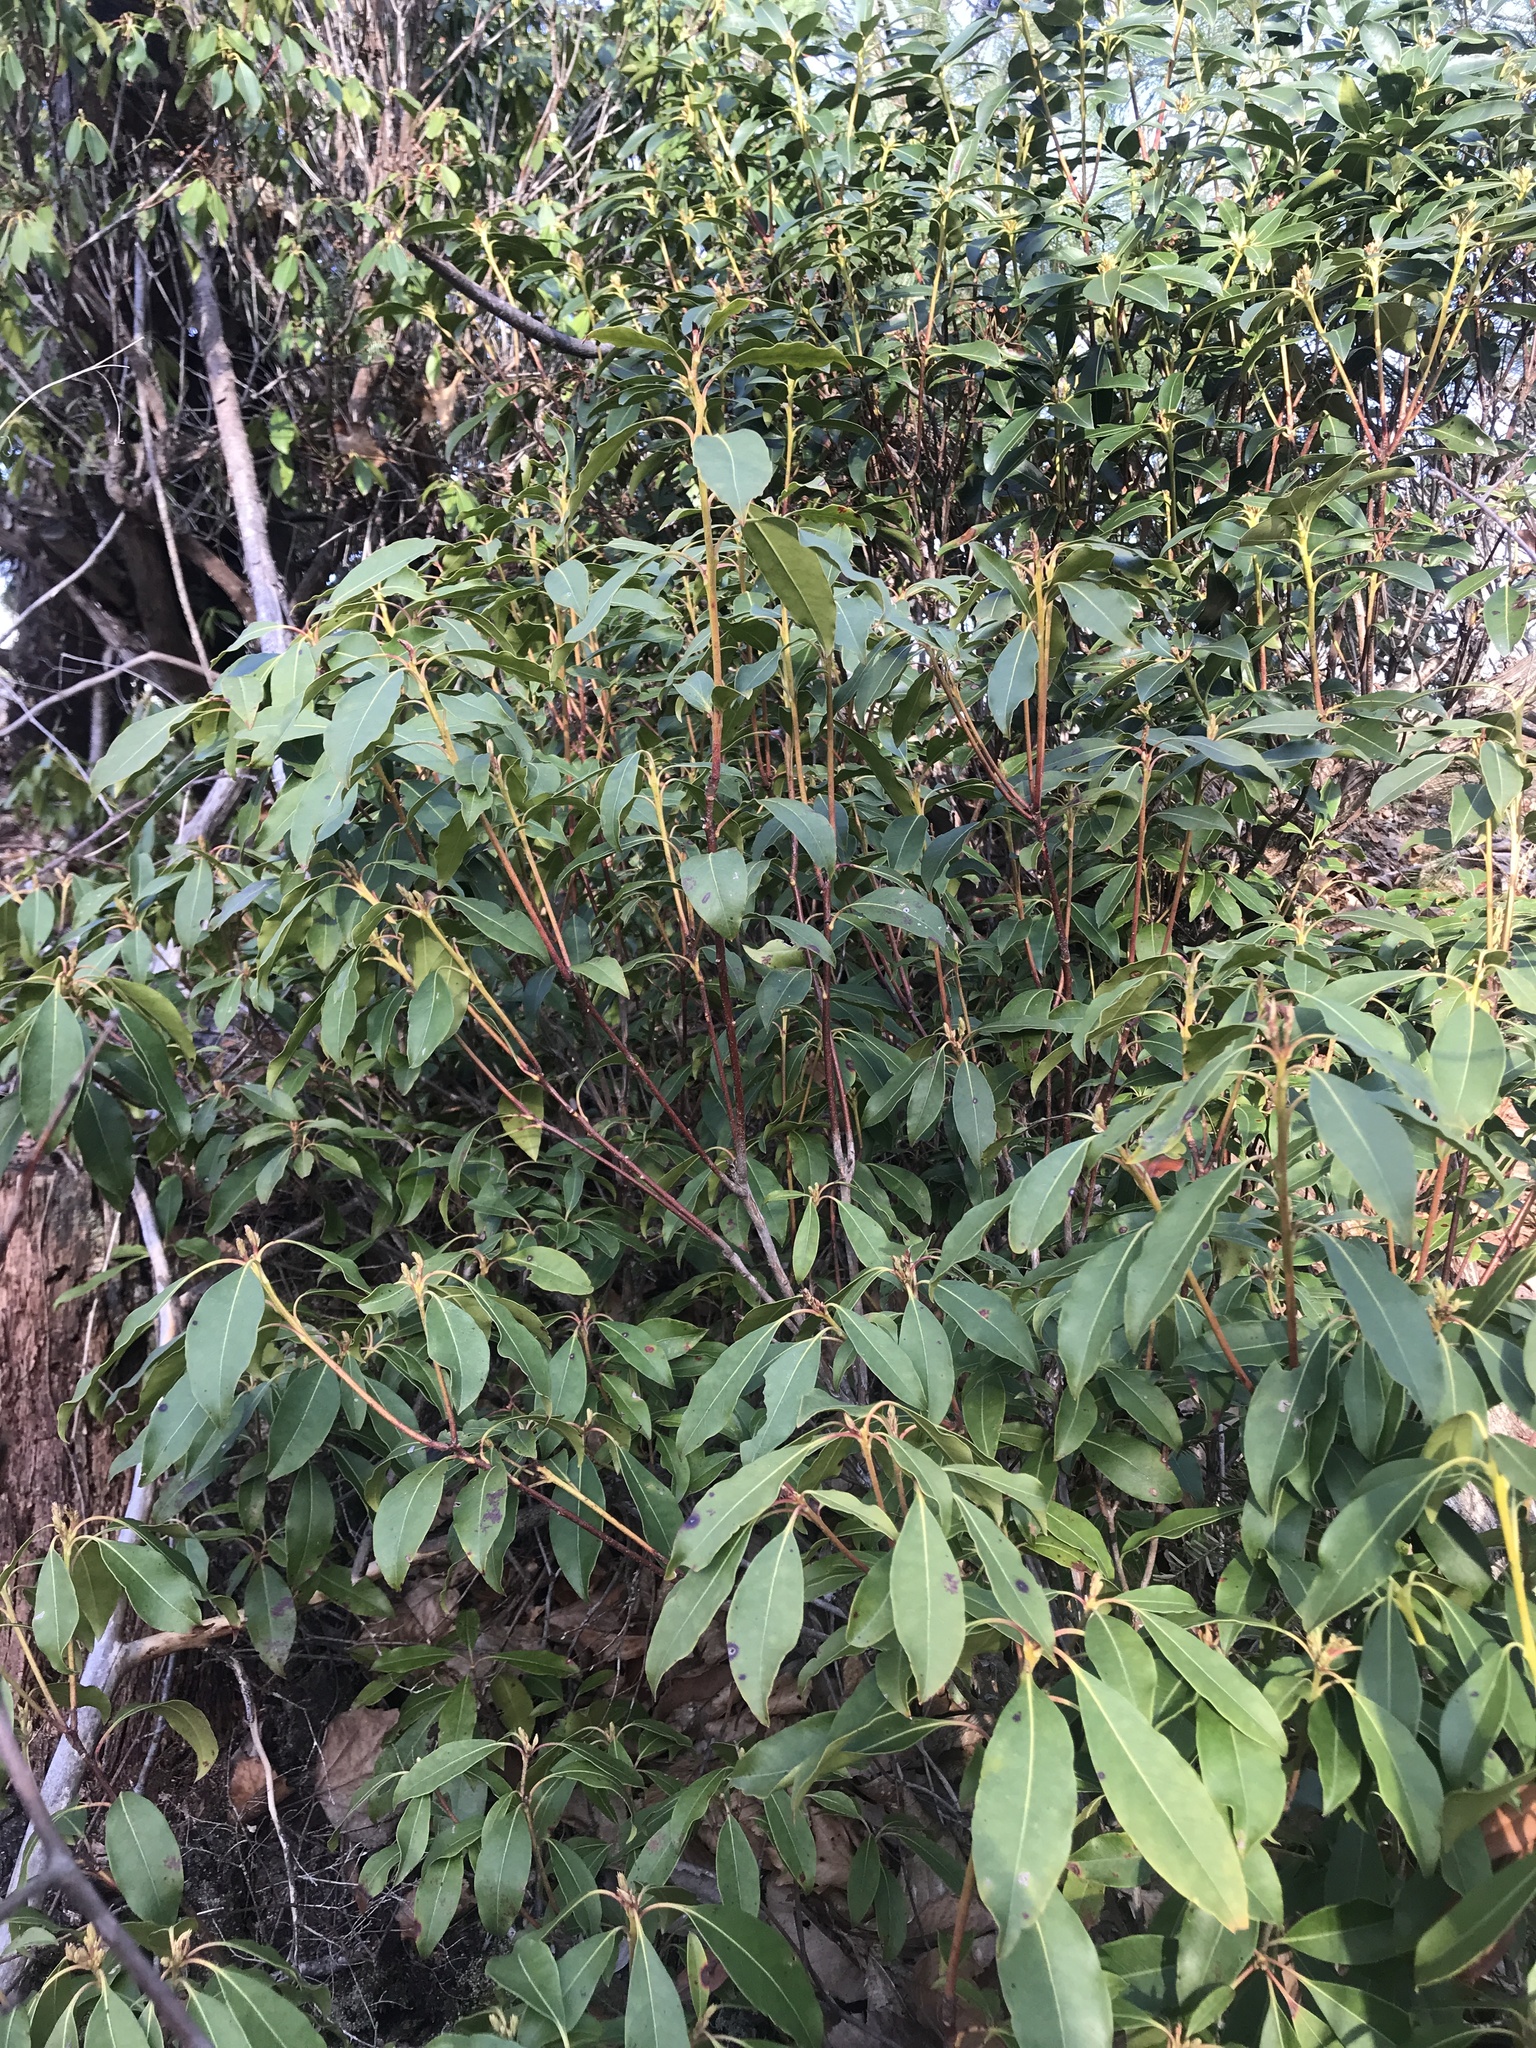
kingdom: Plantae
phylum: Tracheophyta
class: Magnoliopsida
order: Ericales
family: Ericaceae
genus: Kalmia
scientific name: Kalmia latifolia
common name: Mountain-laurel
